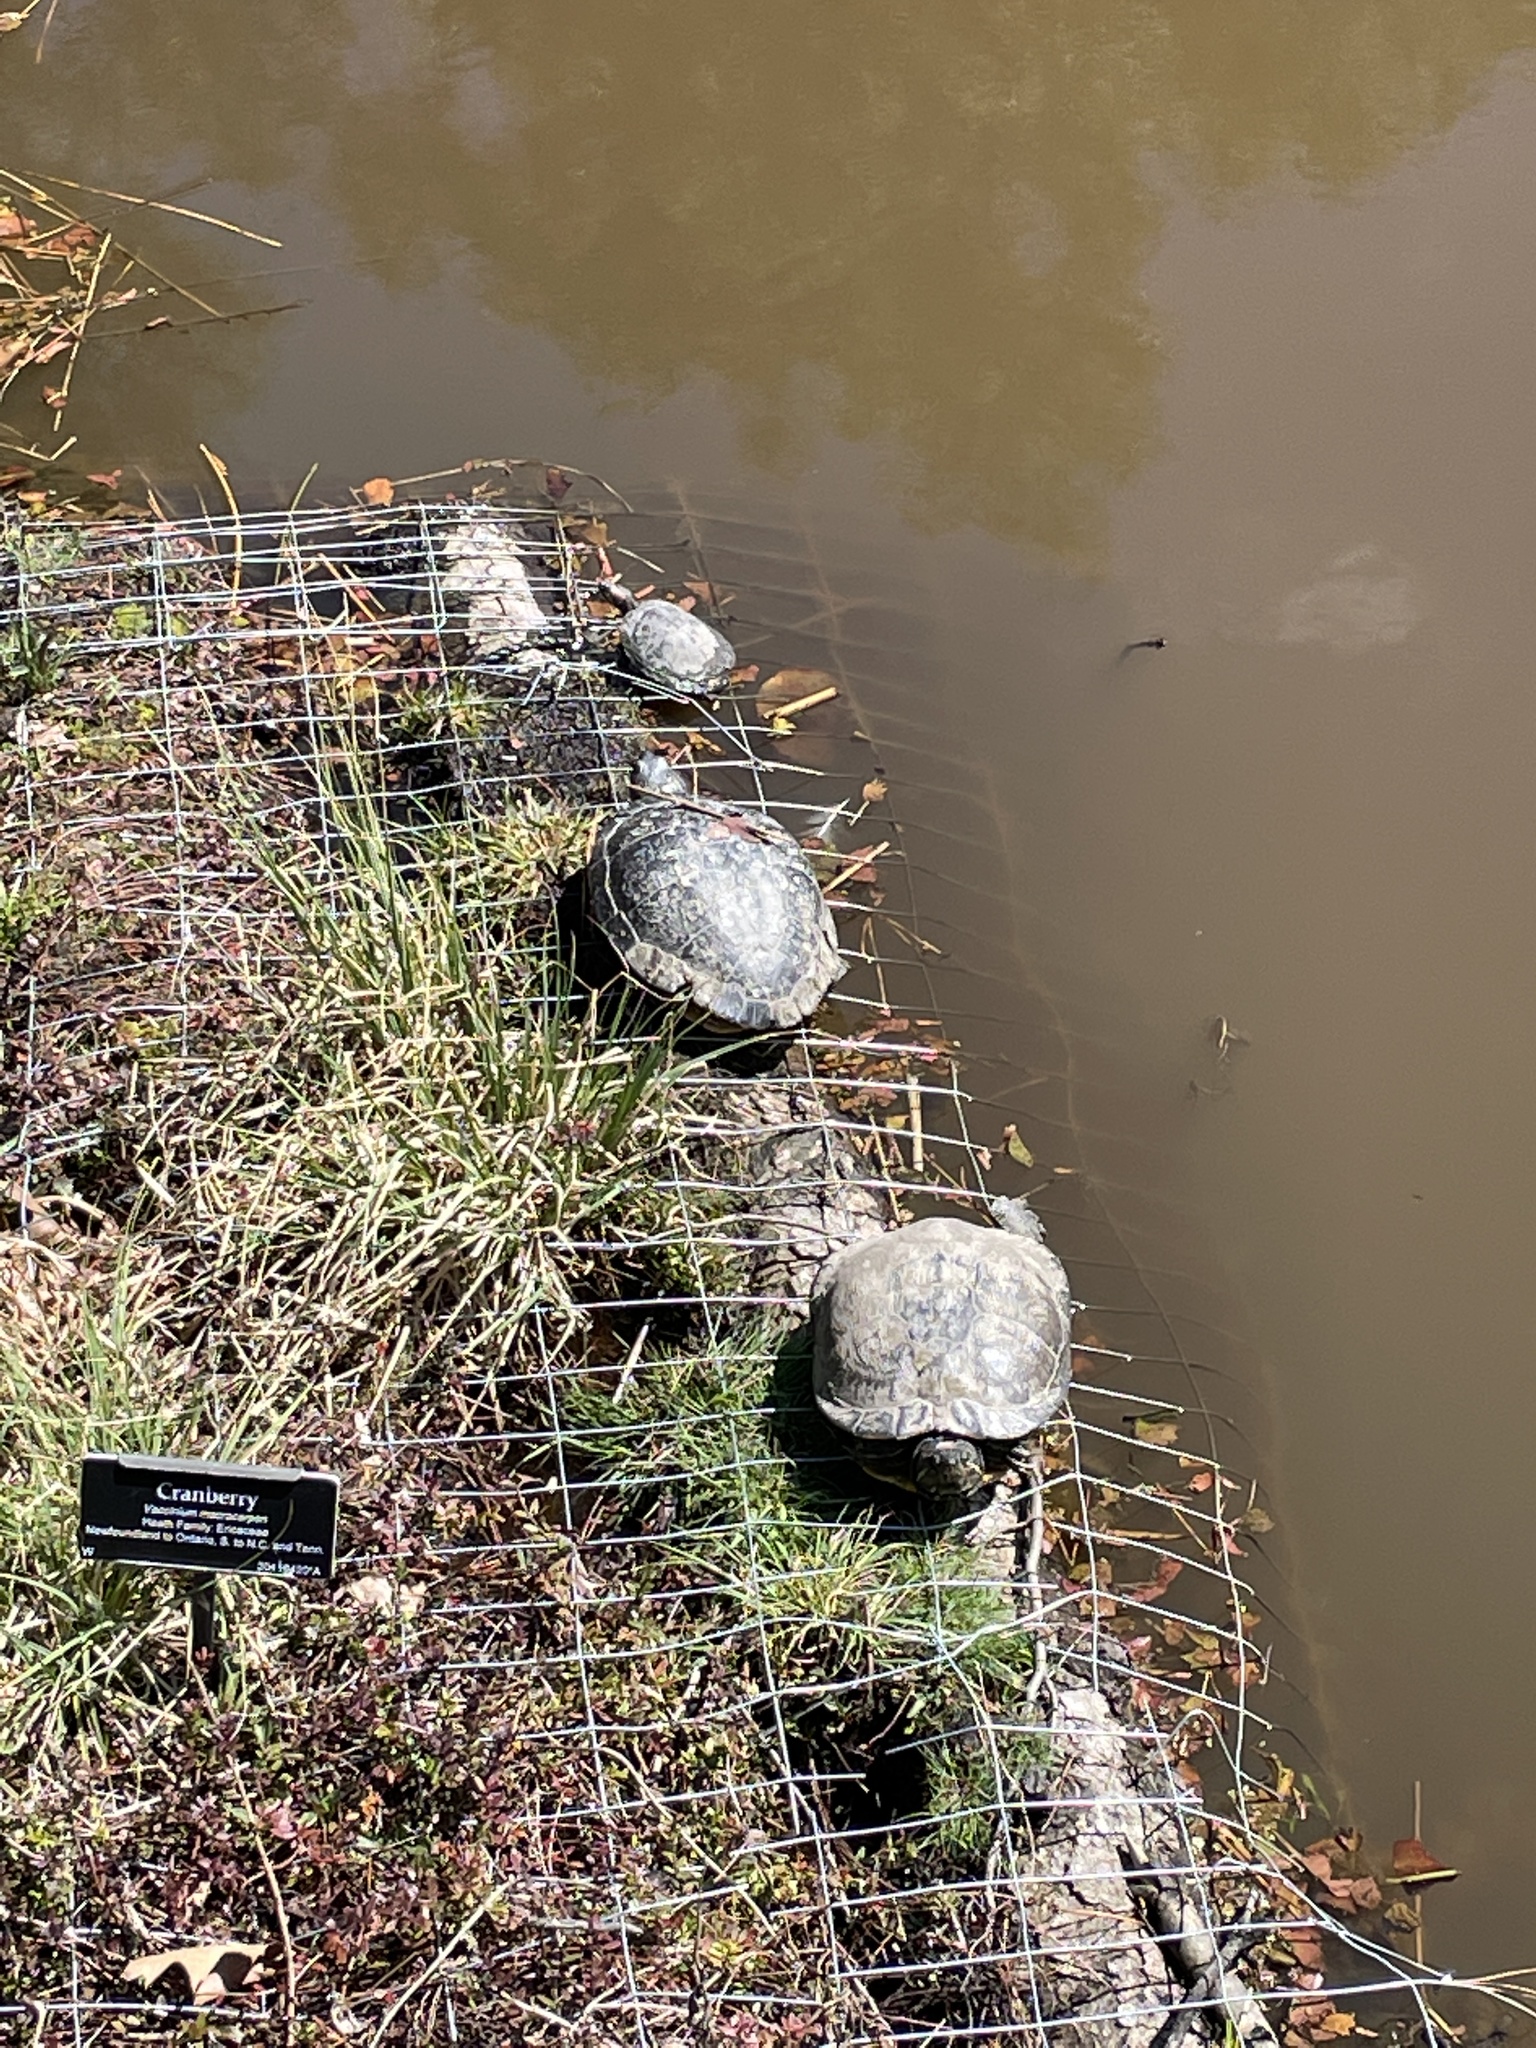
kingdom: Animalia
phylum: Chordata
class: Testudines
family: Emydidae
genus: Trachemys
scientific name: Trachemys scripta
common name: Slider
